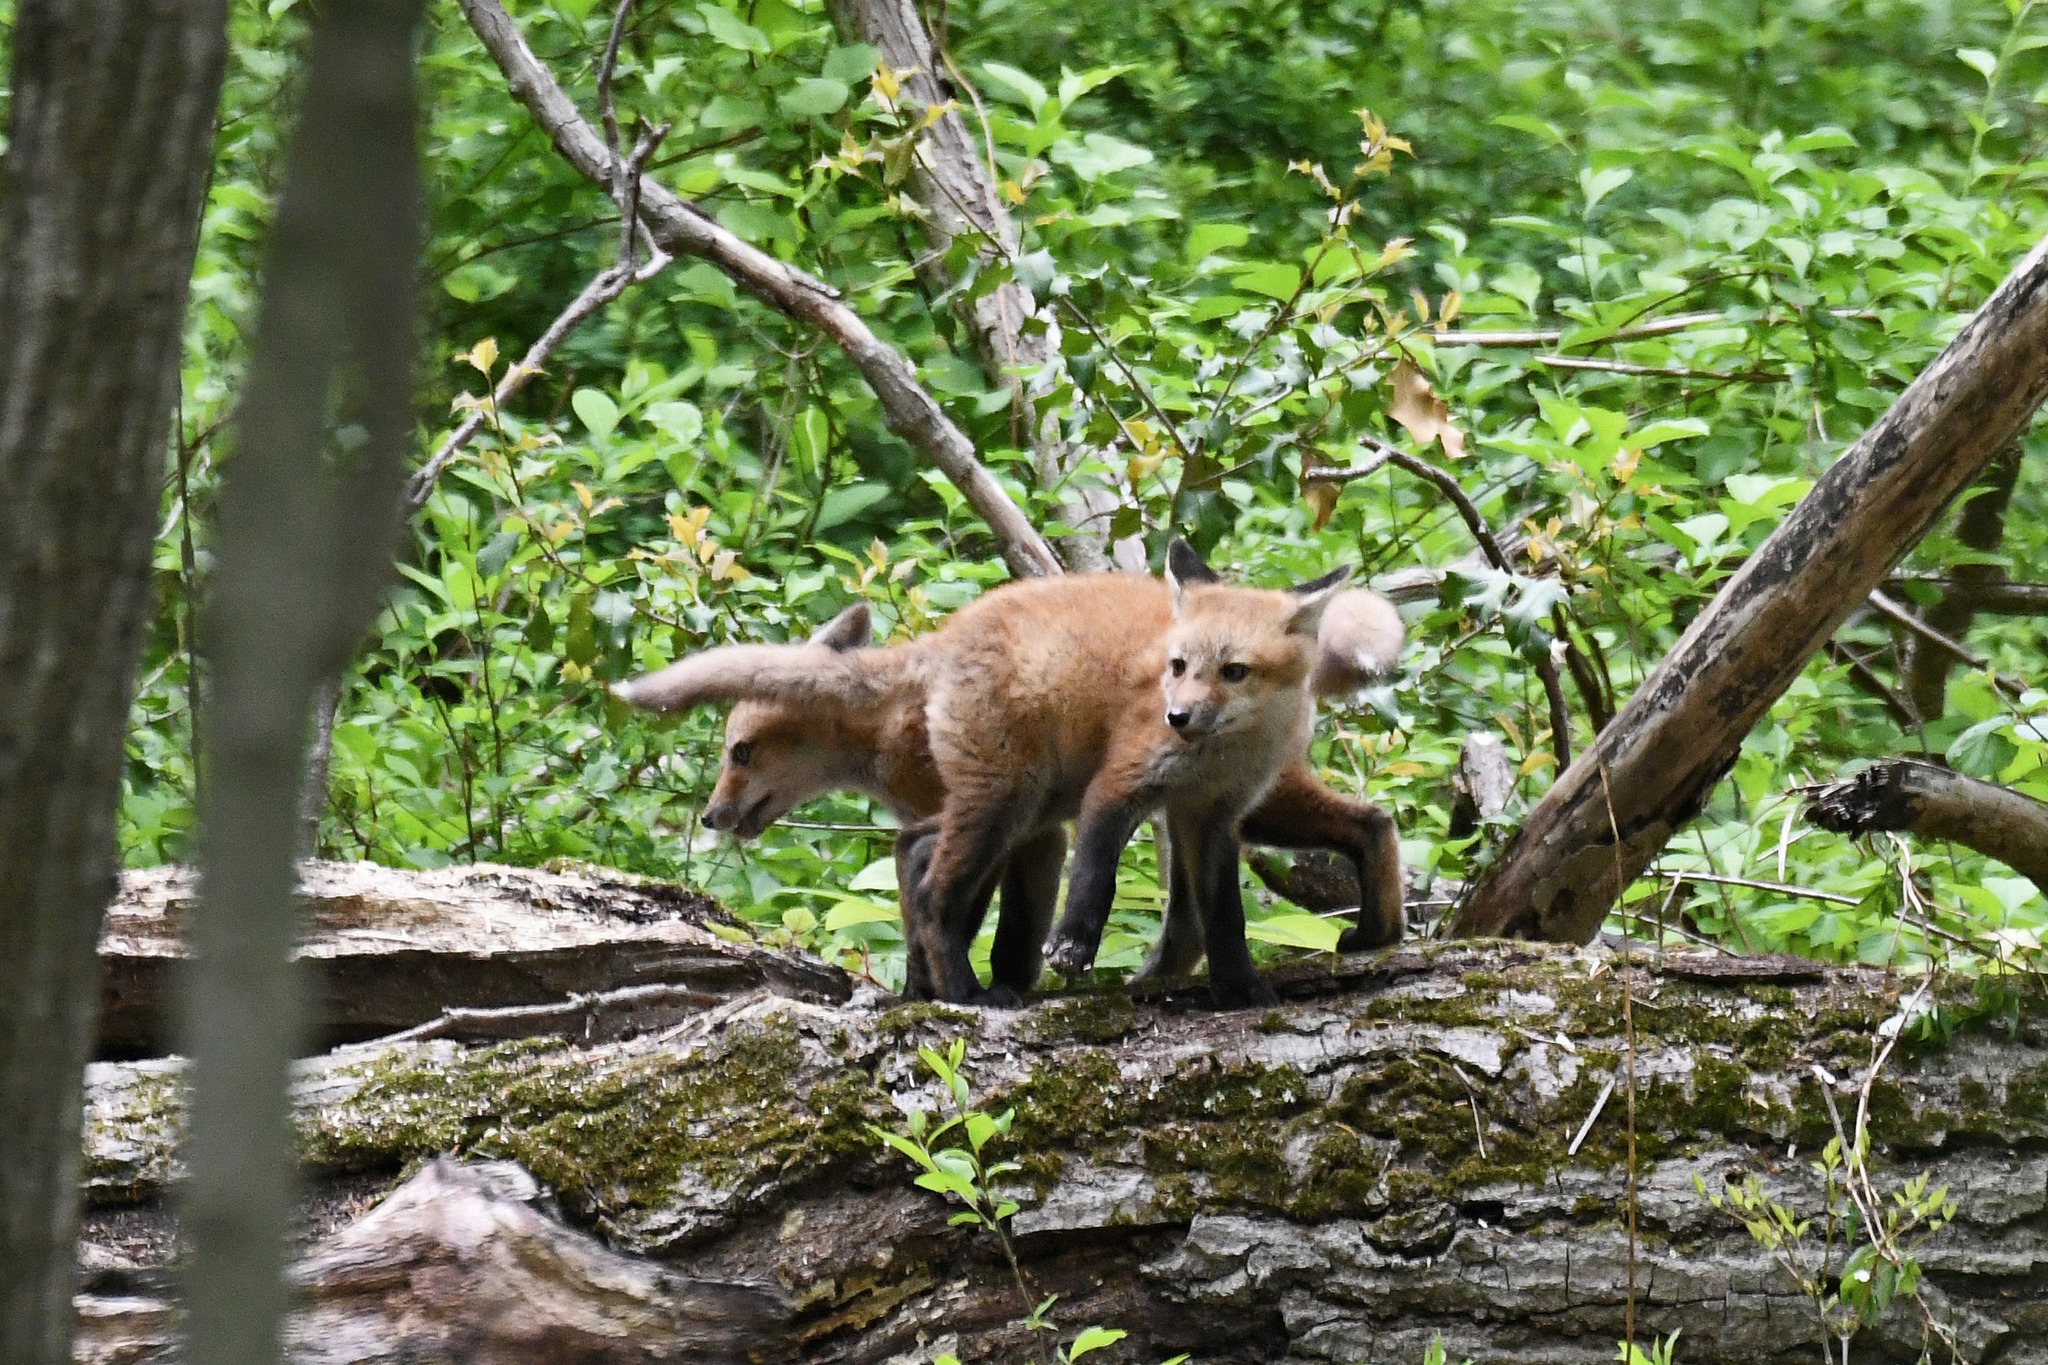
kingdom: Animalia
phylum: Chordata
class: Mammalia
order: Carnivora
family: Canidae
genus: Vulpes
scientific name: Vulpes vulpes
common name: Red fox
